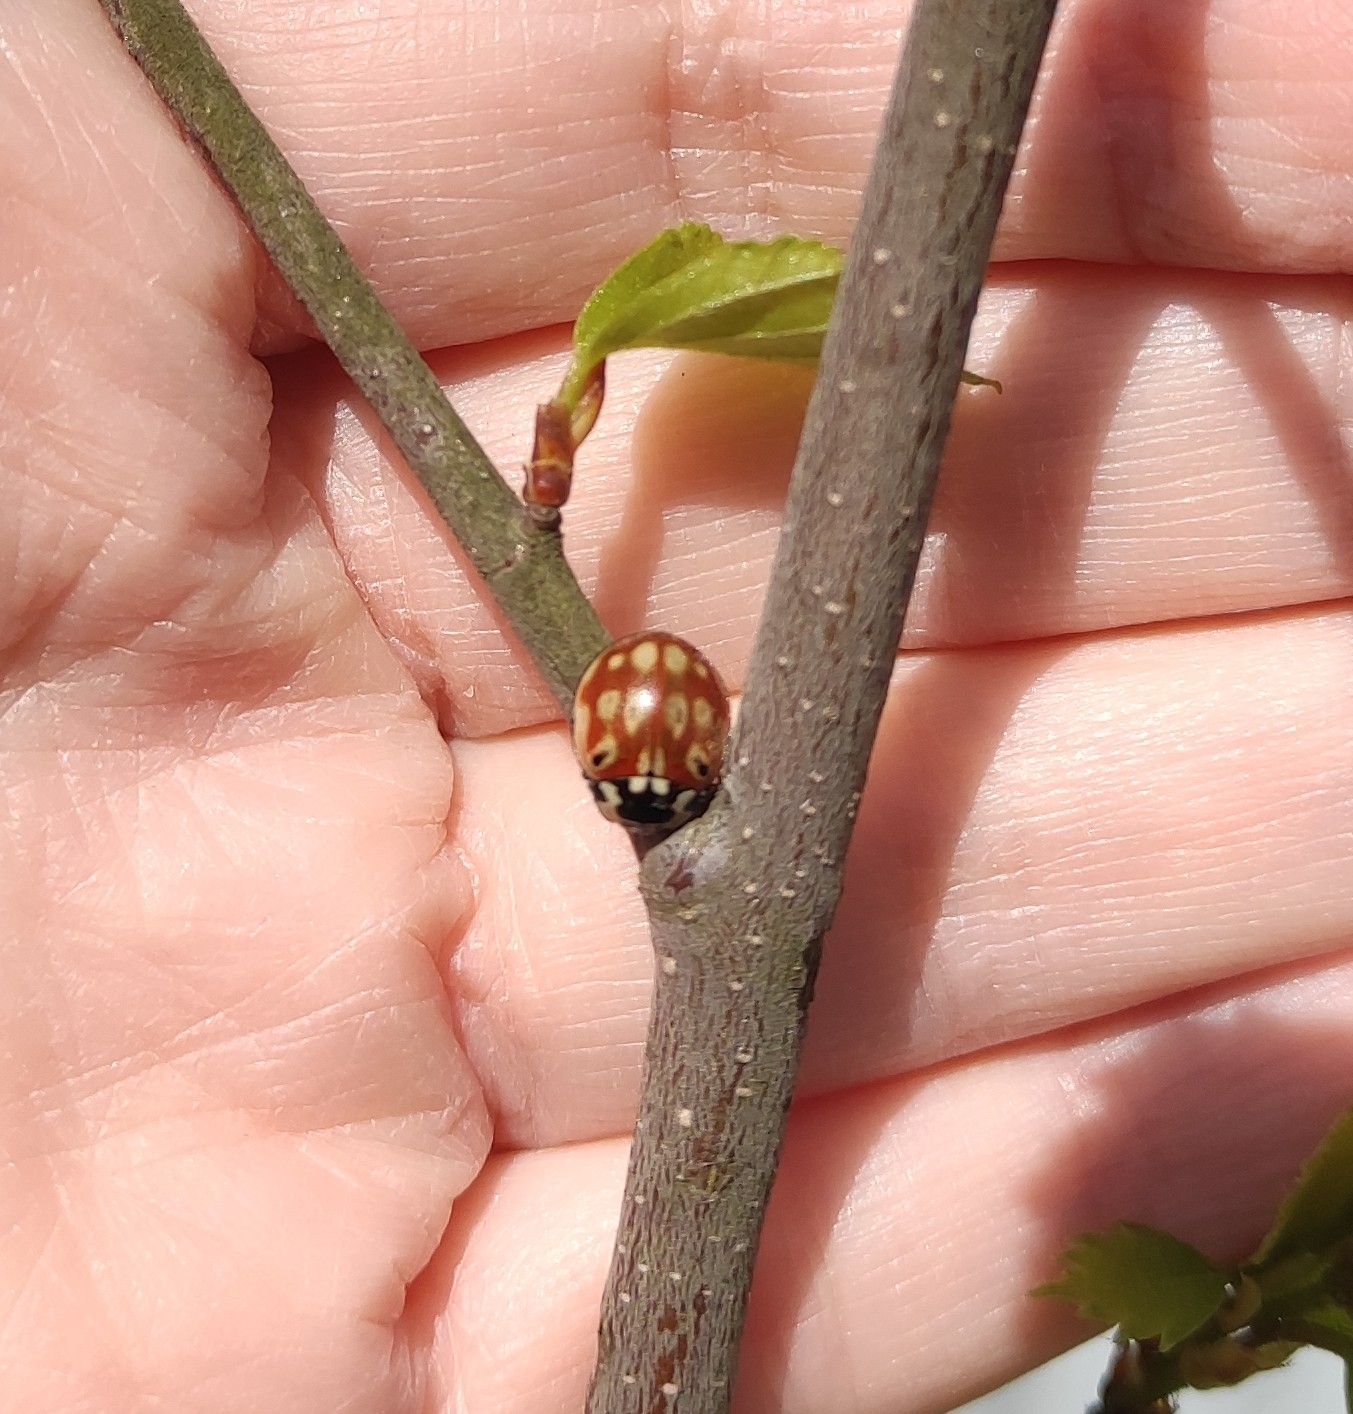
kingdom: Animalia
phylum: Arthropoda
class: Insecta
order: Coleoptera
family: Coccinellidae
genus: Anatis
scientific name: Anatis ocellata
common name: Eyed ladybird
